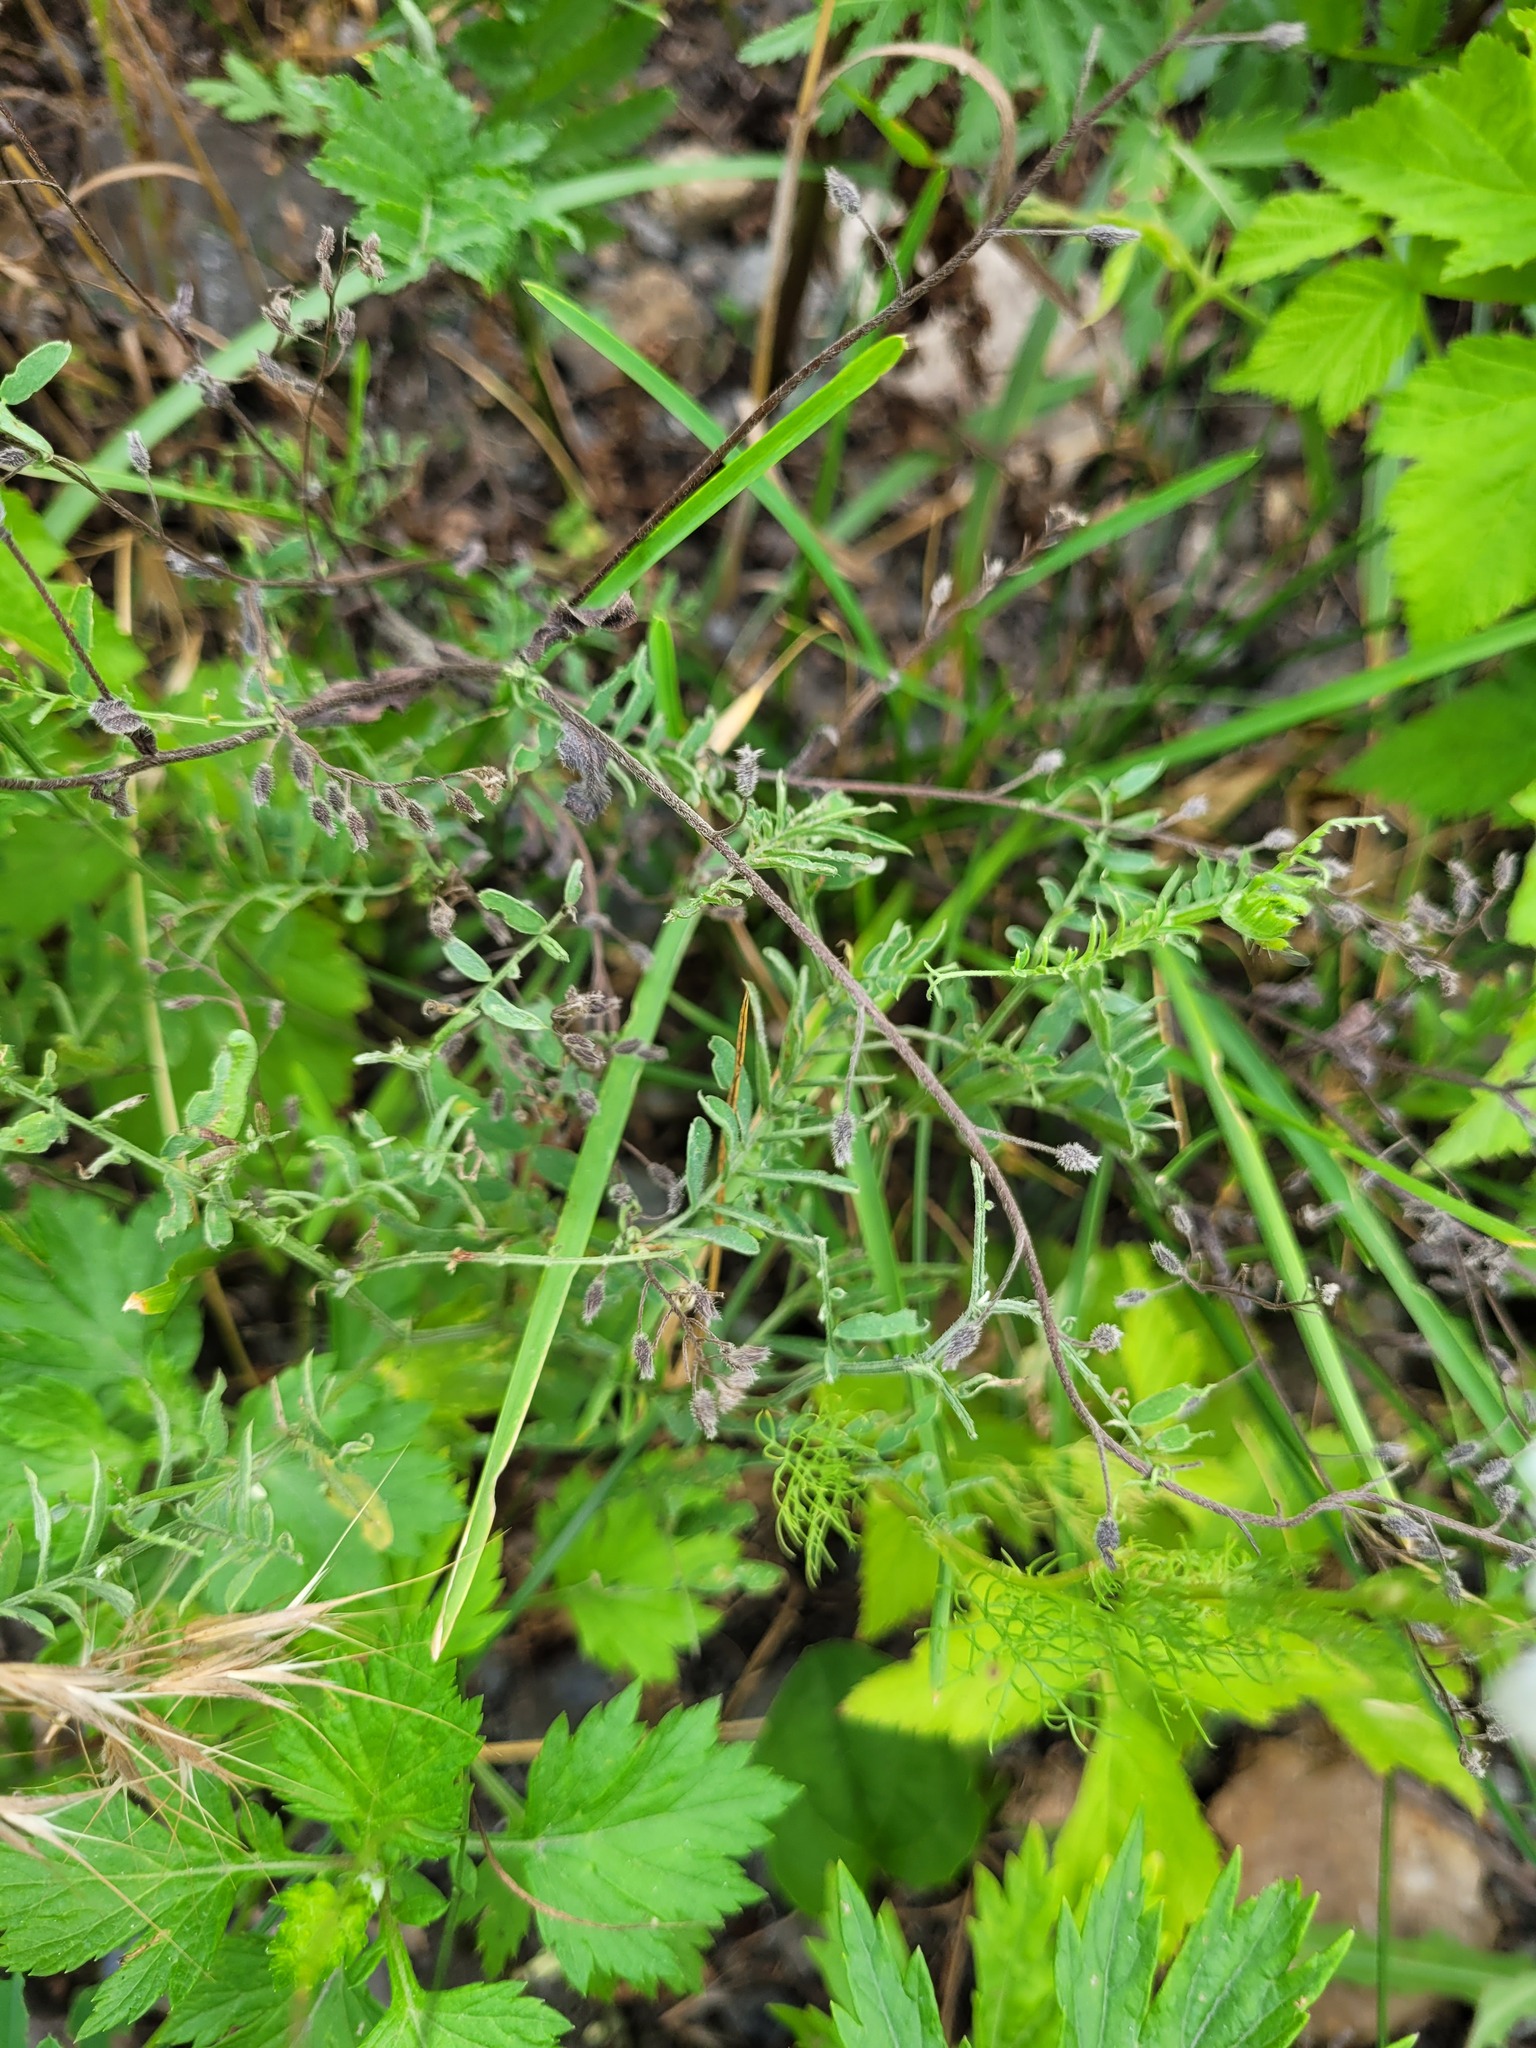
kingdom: Plantae
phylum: Tracheophyta
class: Magnoliopsida
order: Fabales
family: Fabaceae
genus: Vicia
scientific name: Vicia cracca
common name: Bird vetch
